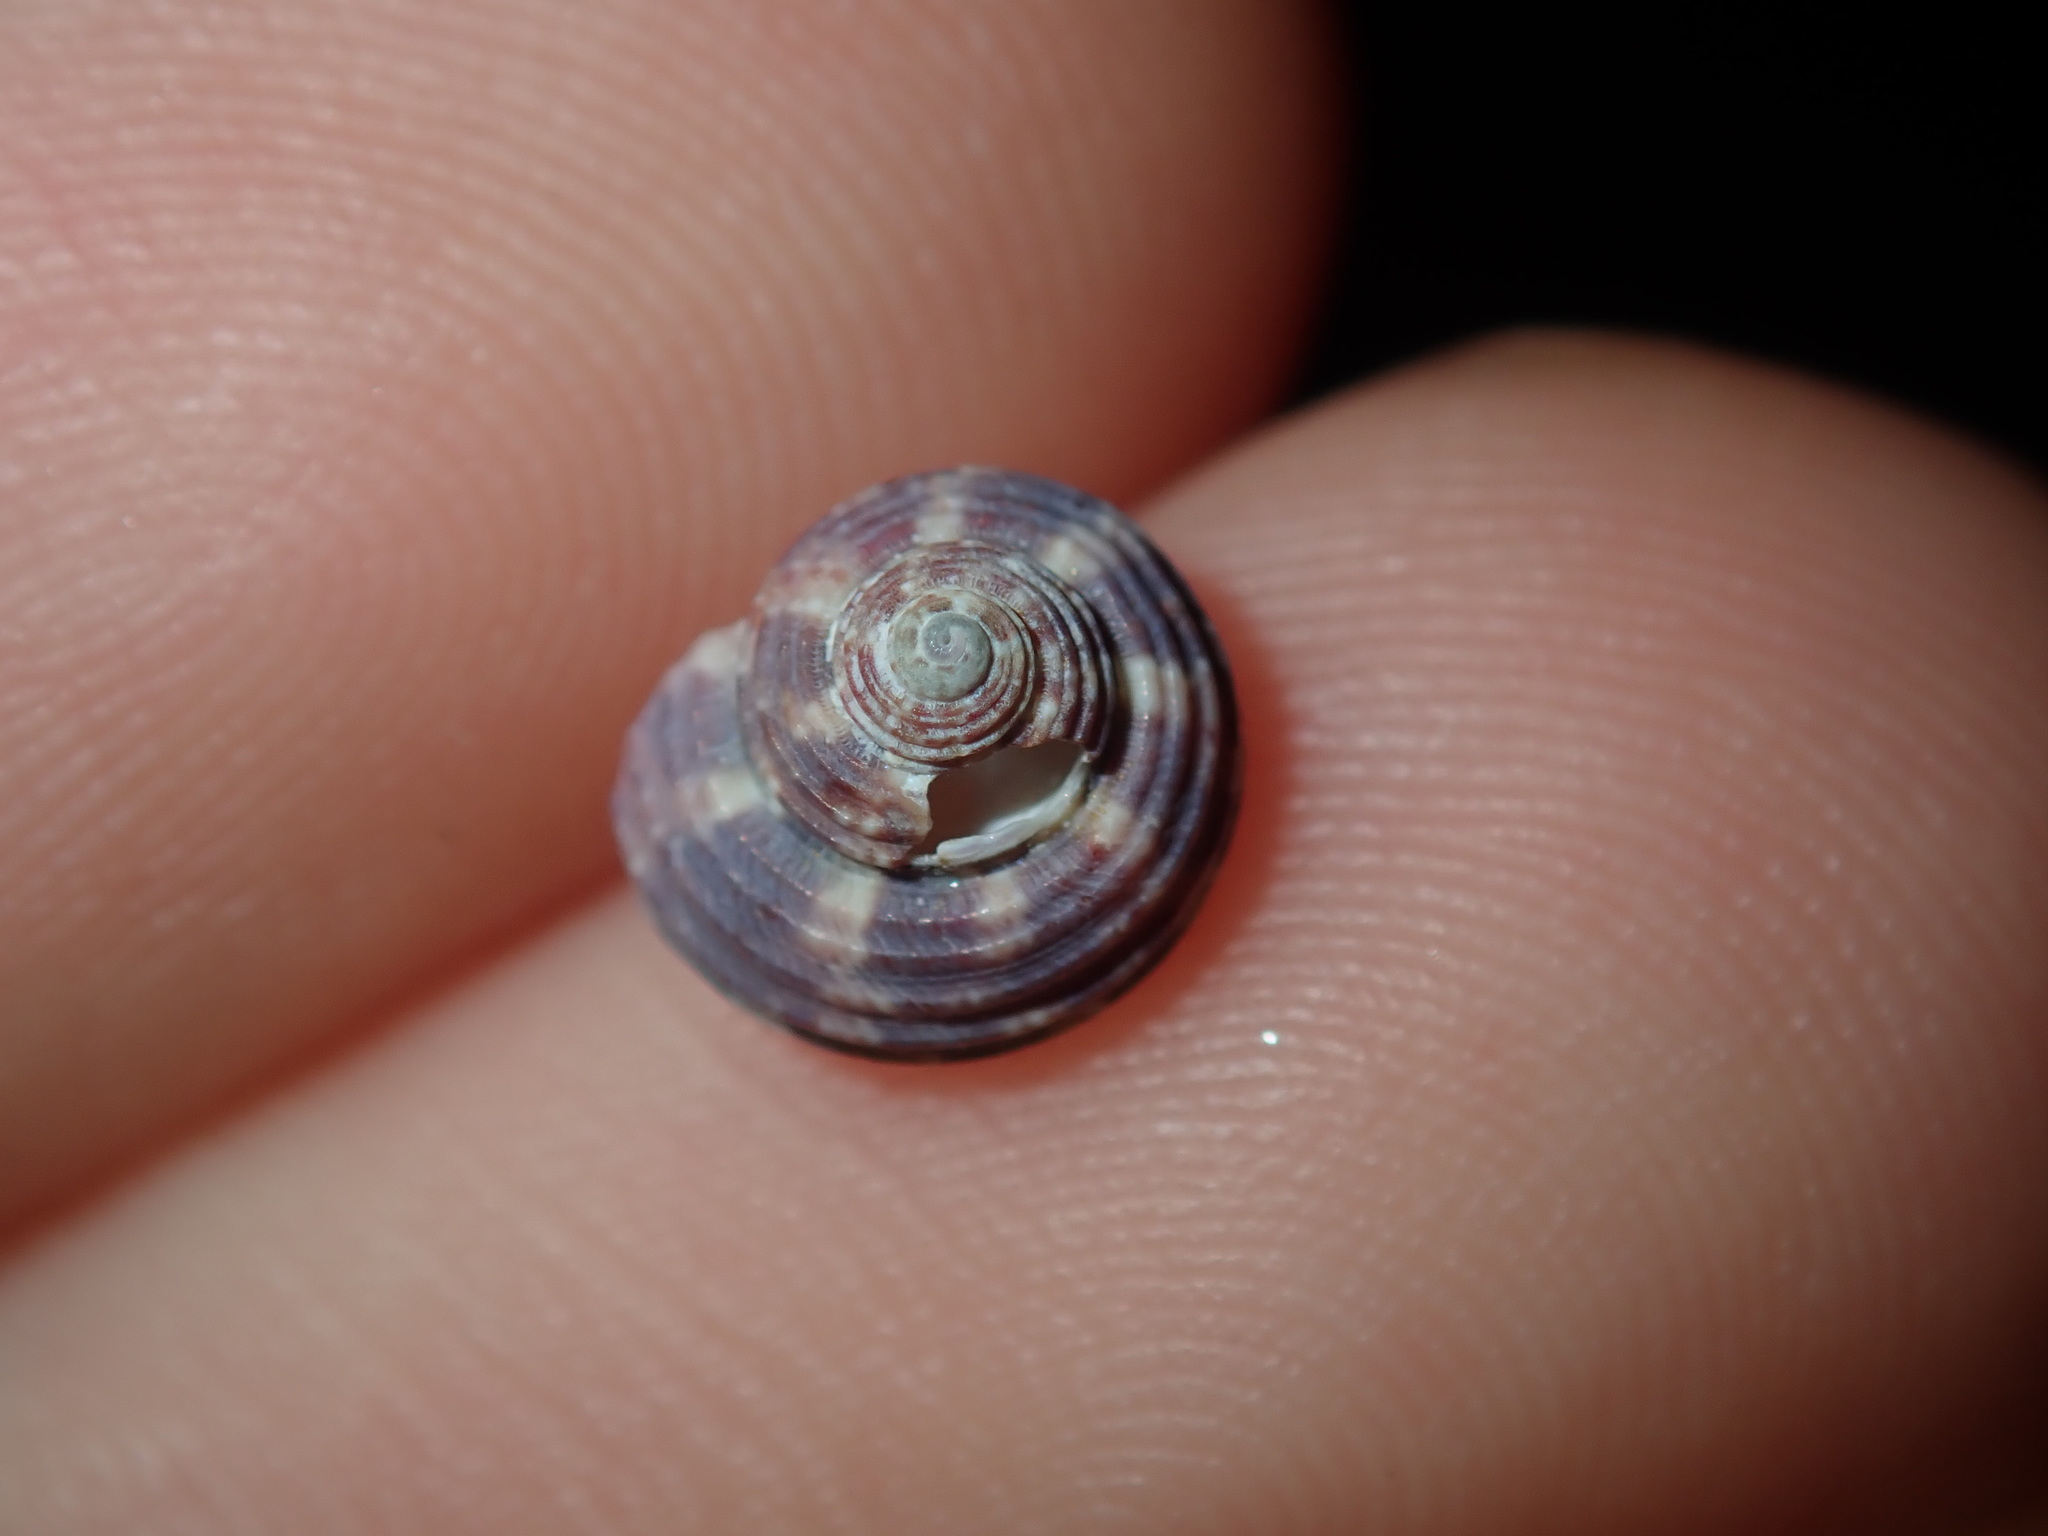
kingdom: Animalia
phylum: Mollusca
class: Gastropoda
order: Trochida
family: Trochidae
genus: Eurytrochus
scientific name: Eurytrochus strangei
